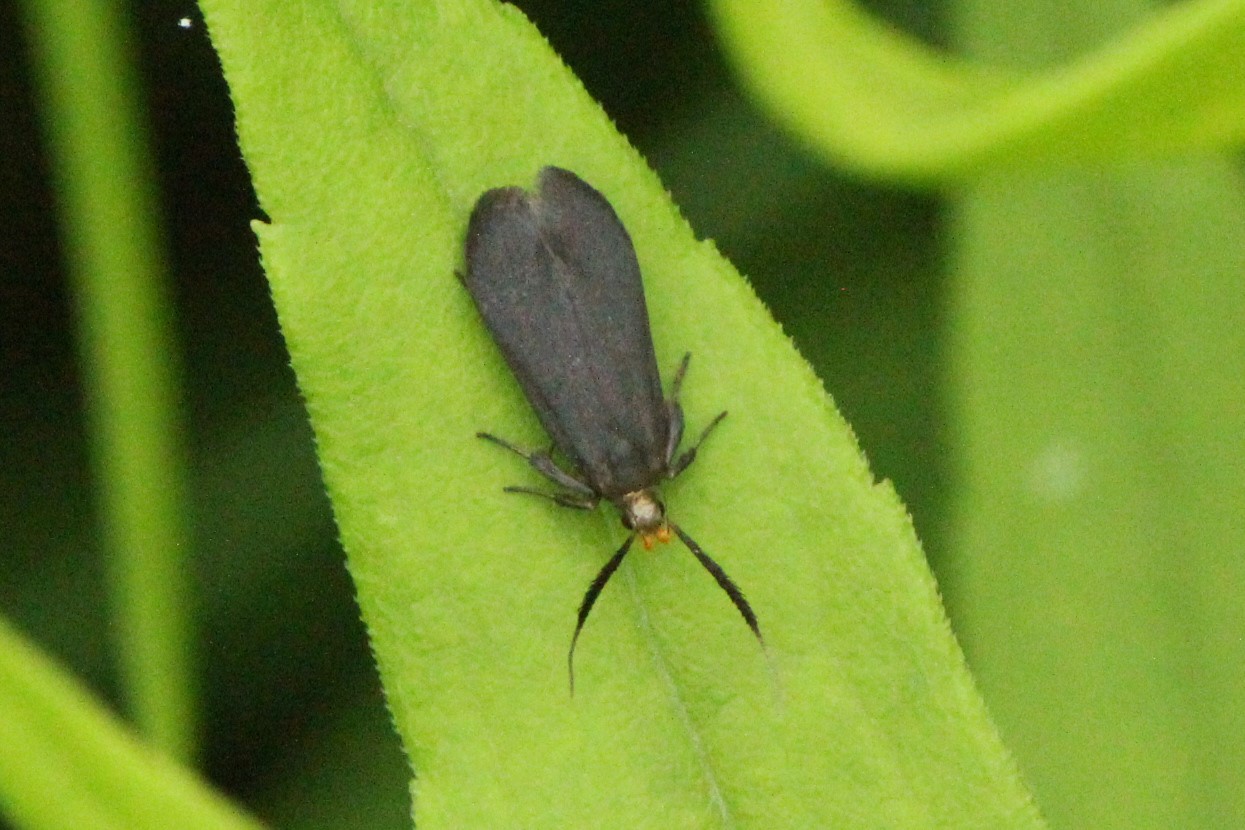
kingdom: Animalia
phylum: Arthropoda
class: Insecta
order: Lepidoptera
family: Gelechiidae
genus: Dichomeris
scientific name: Dichomeris nonstrigella
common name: Little devil moth
